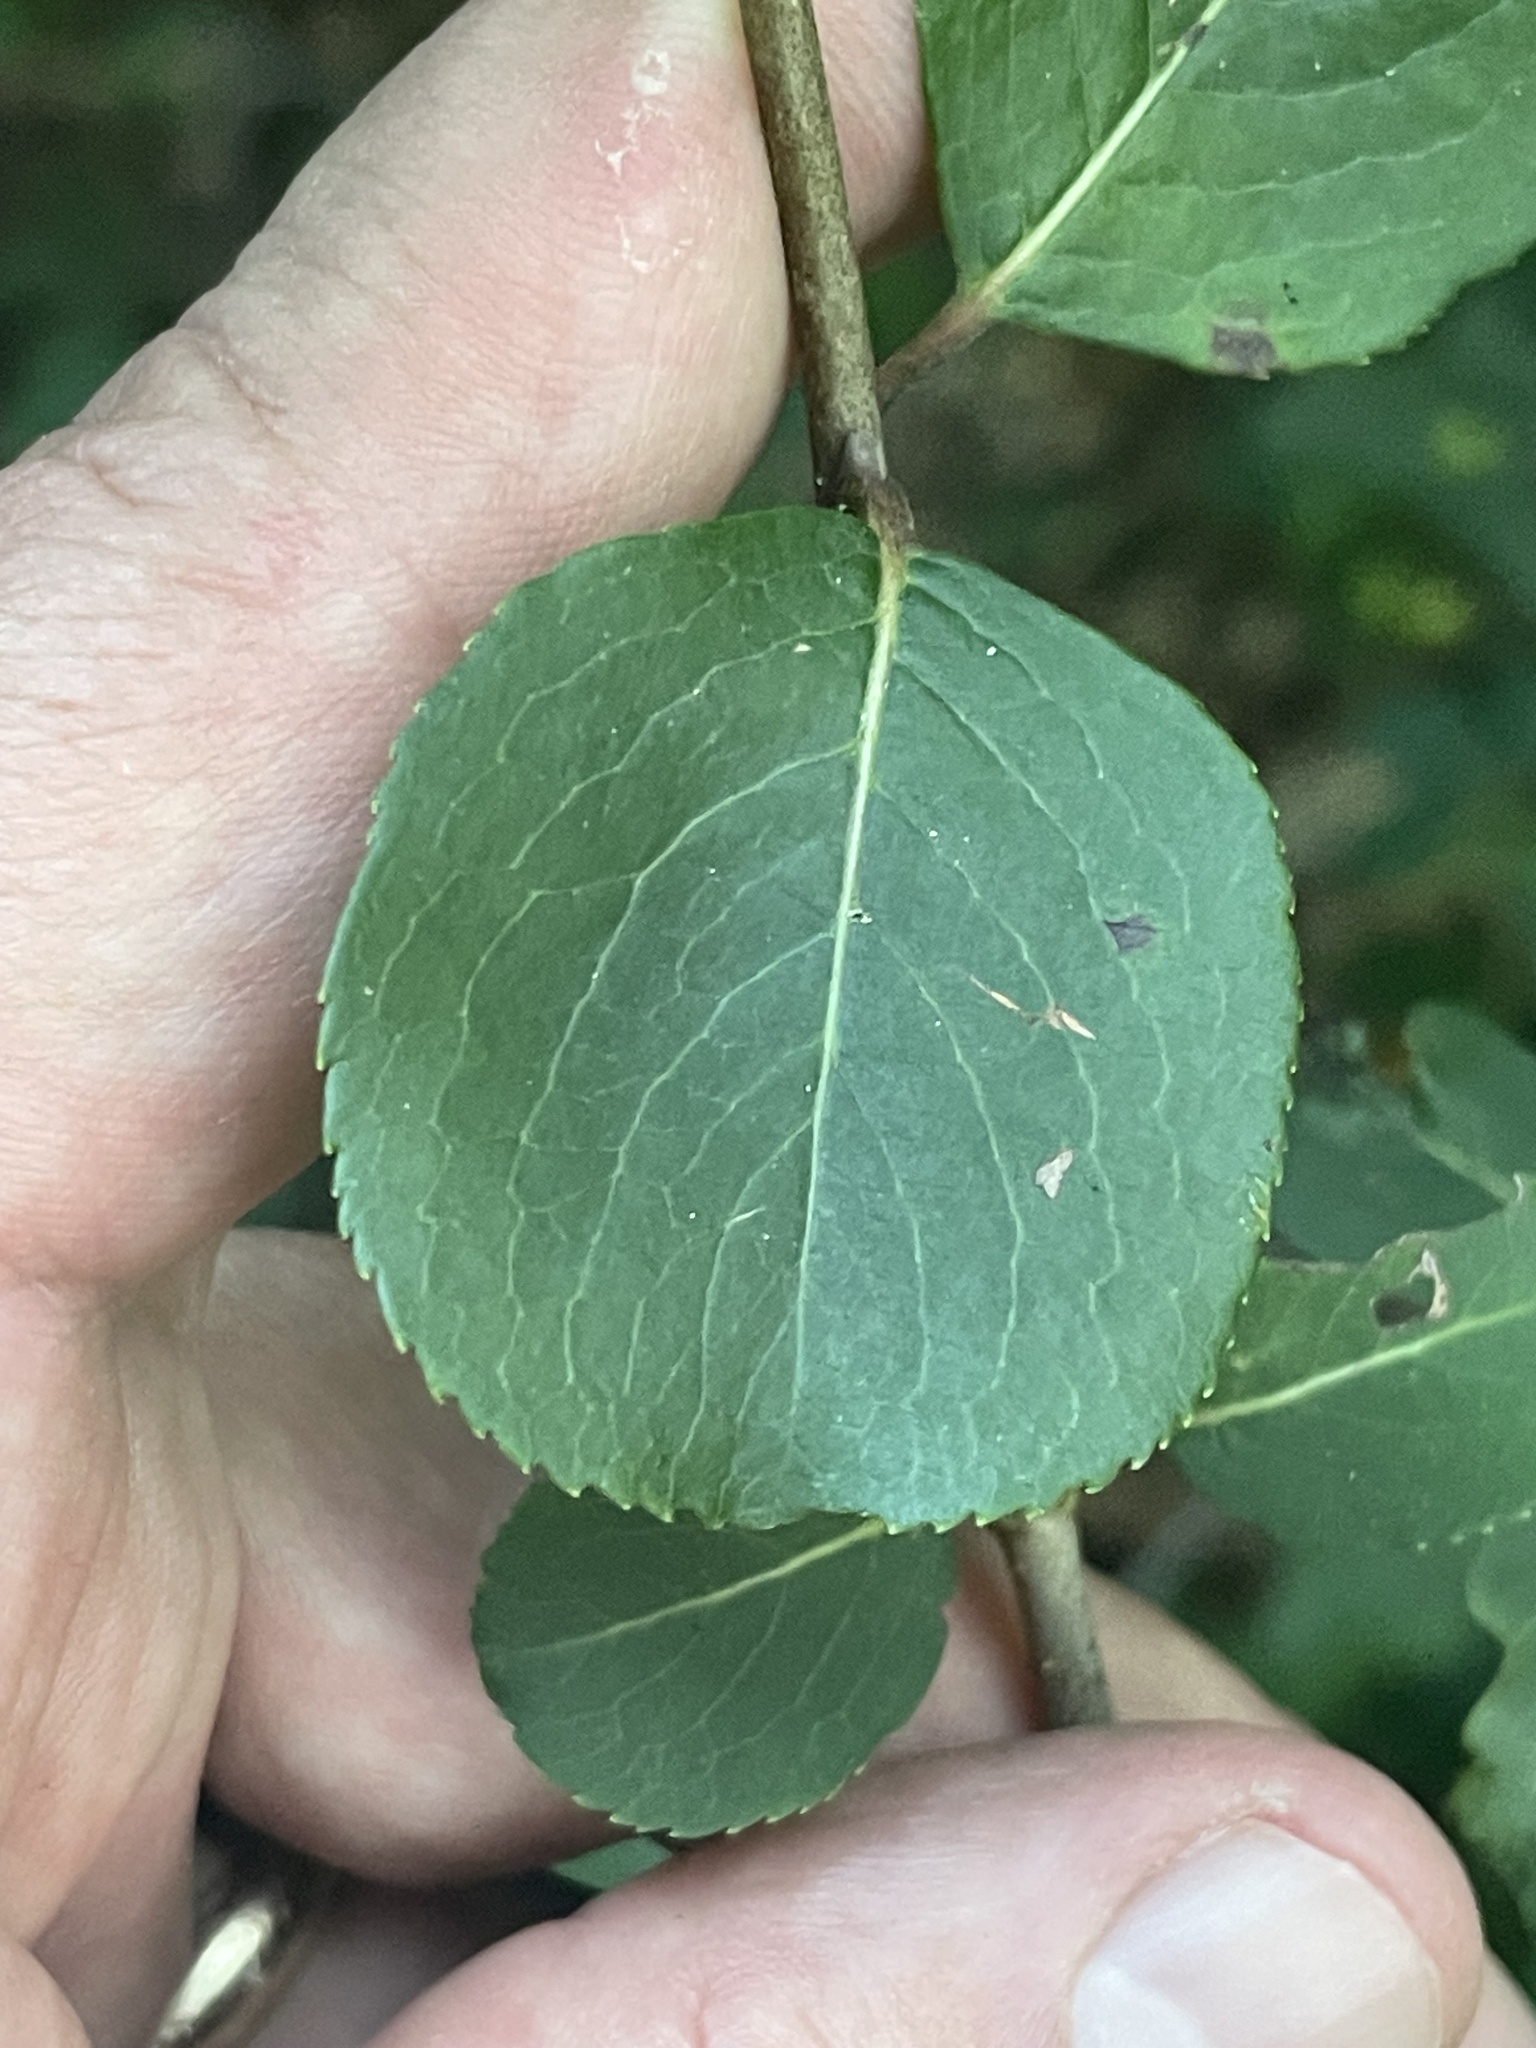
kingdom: Plantae
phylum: Tracheophyta
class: Magnoliopsida
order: Dipsacales
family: Viburnaceae
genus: Viburnum
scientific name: Viburnum prunifolium
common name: Black haw
